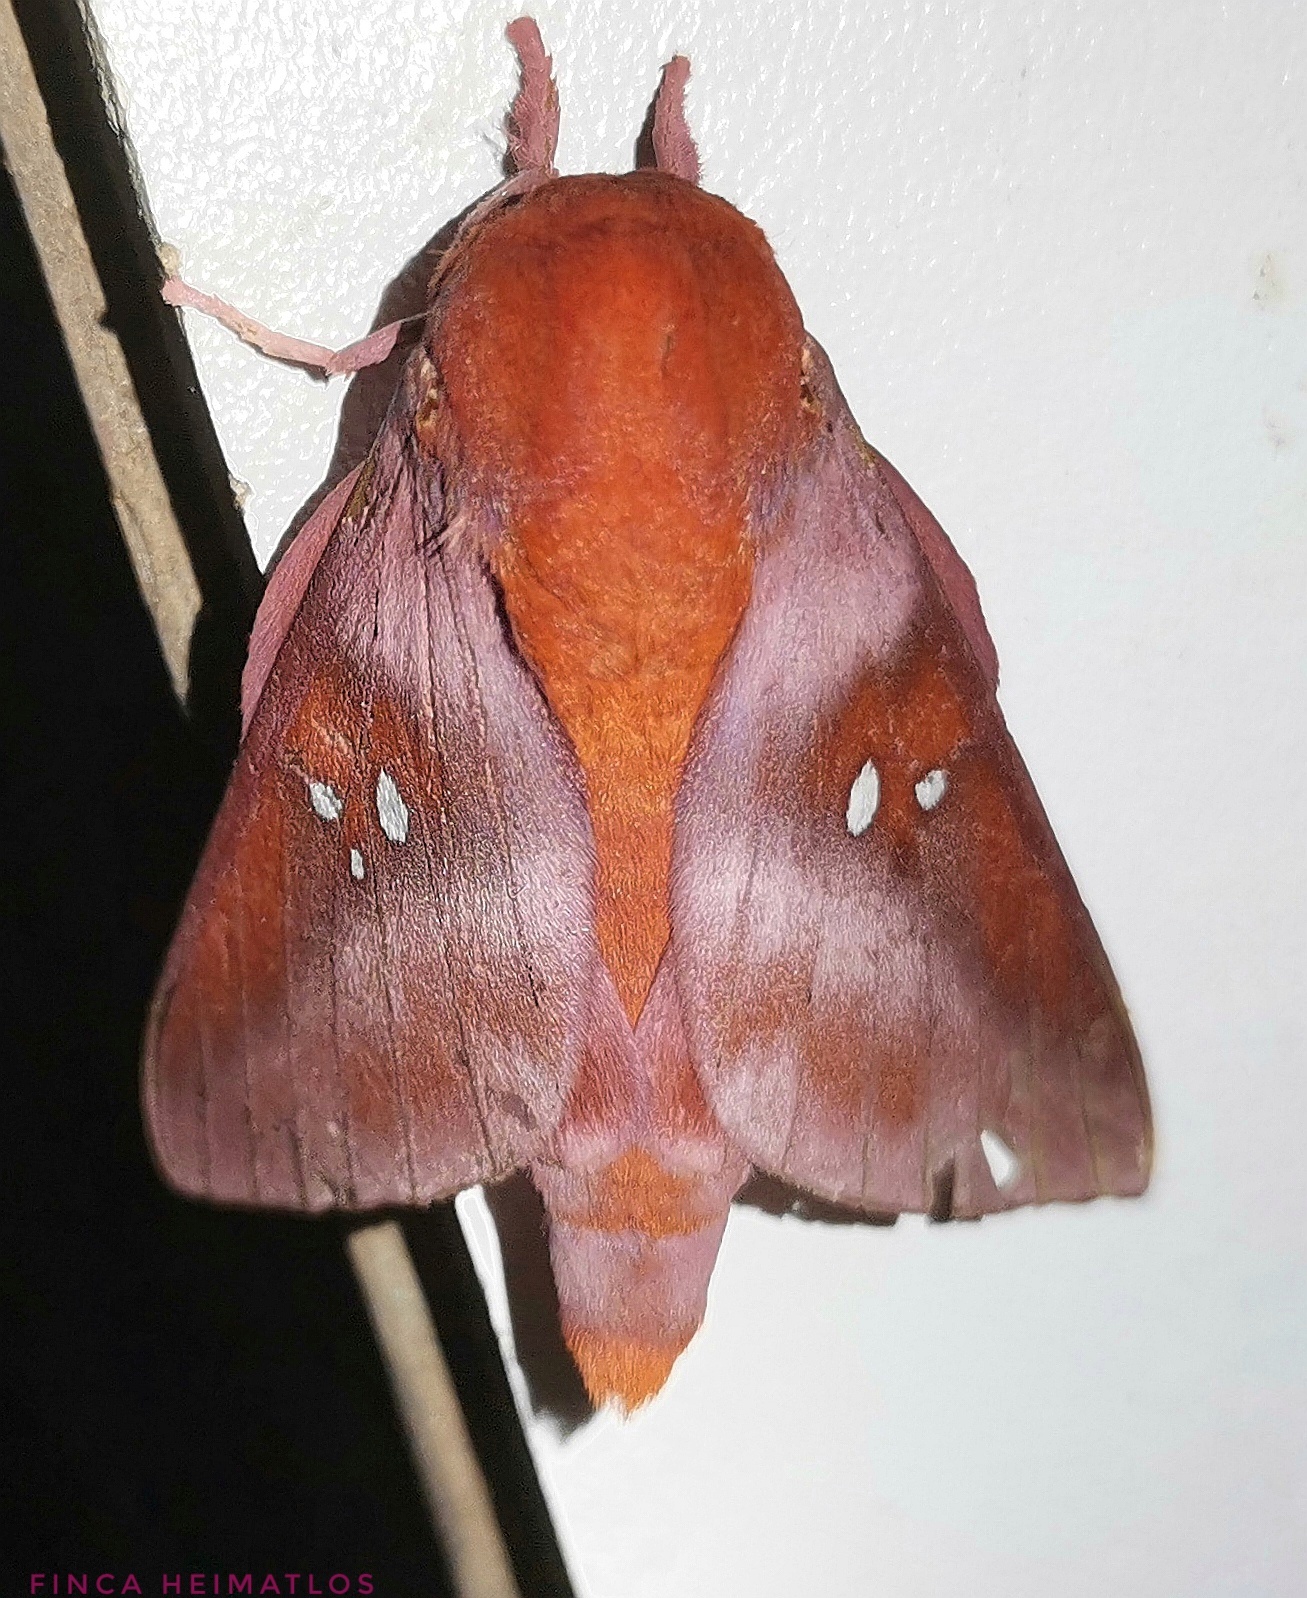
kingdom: Animalia
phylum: Arthropoda
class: Insecta
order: Lepidoptera
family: Saturniidae
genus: Adelowalkeria
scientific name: Adelowalkeria kitchingi
